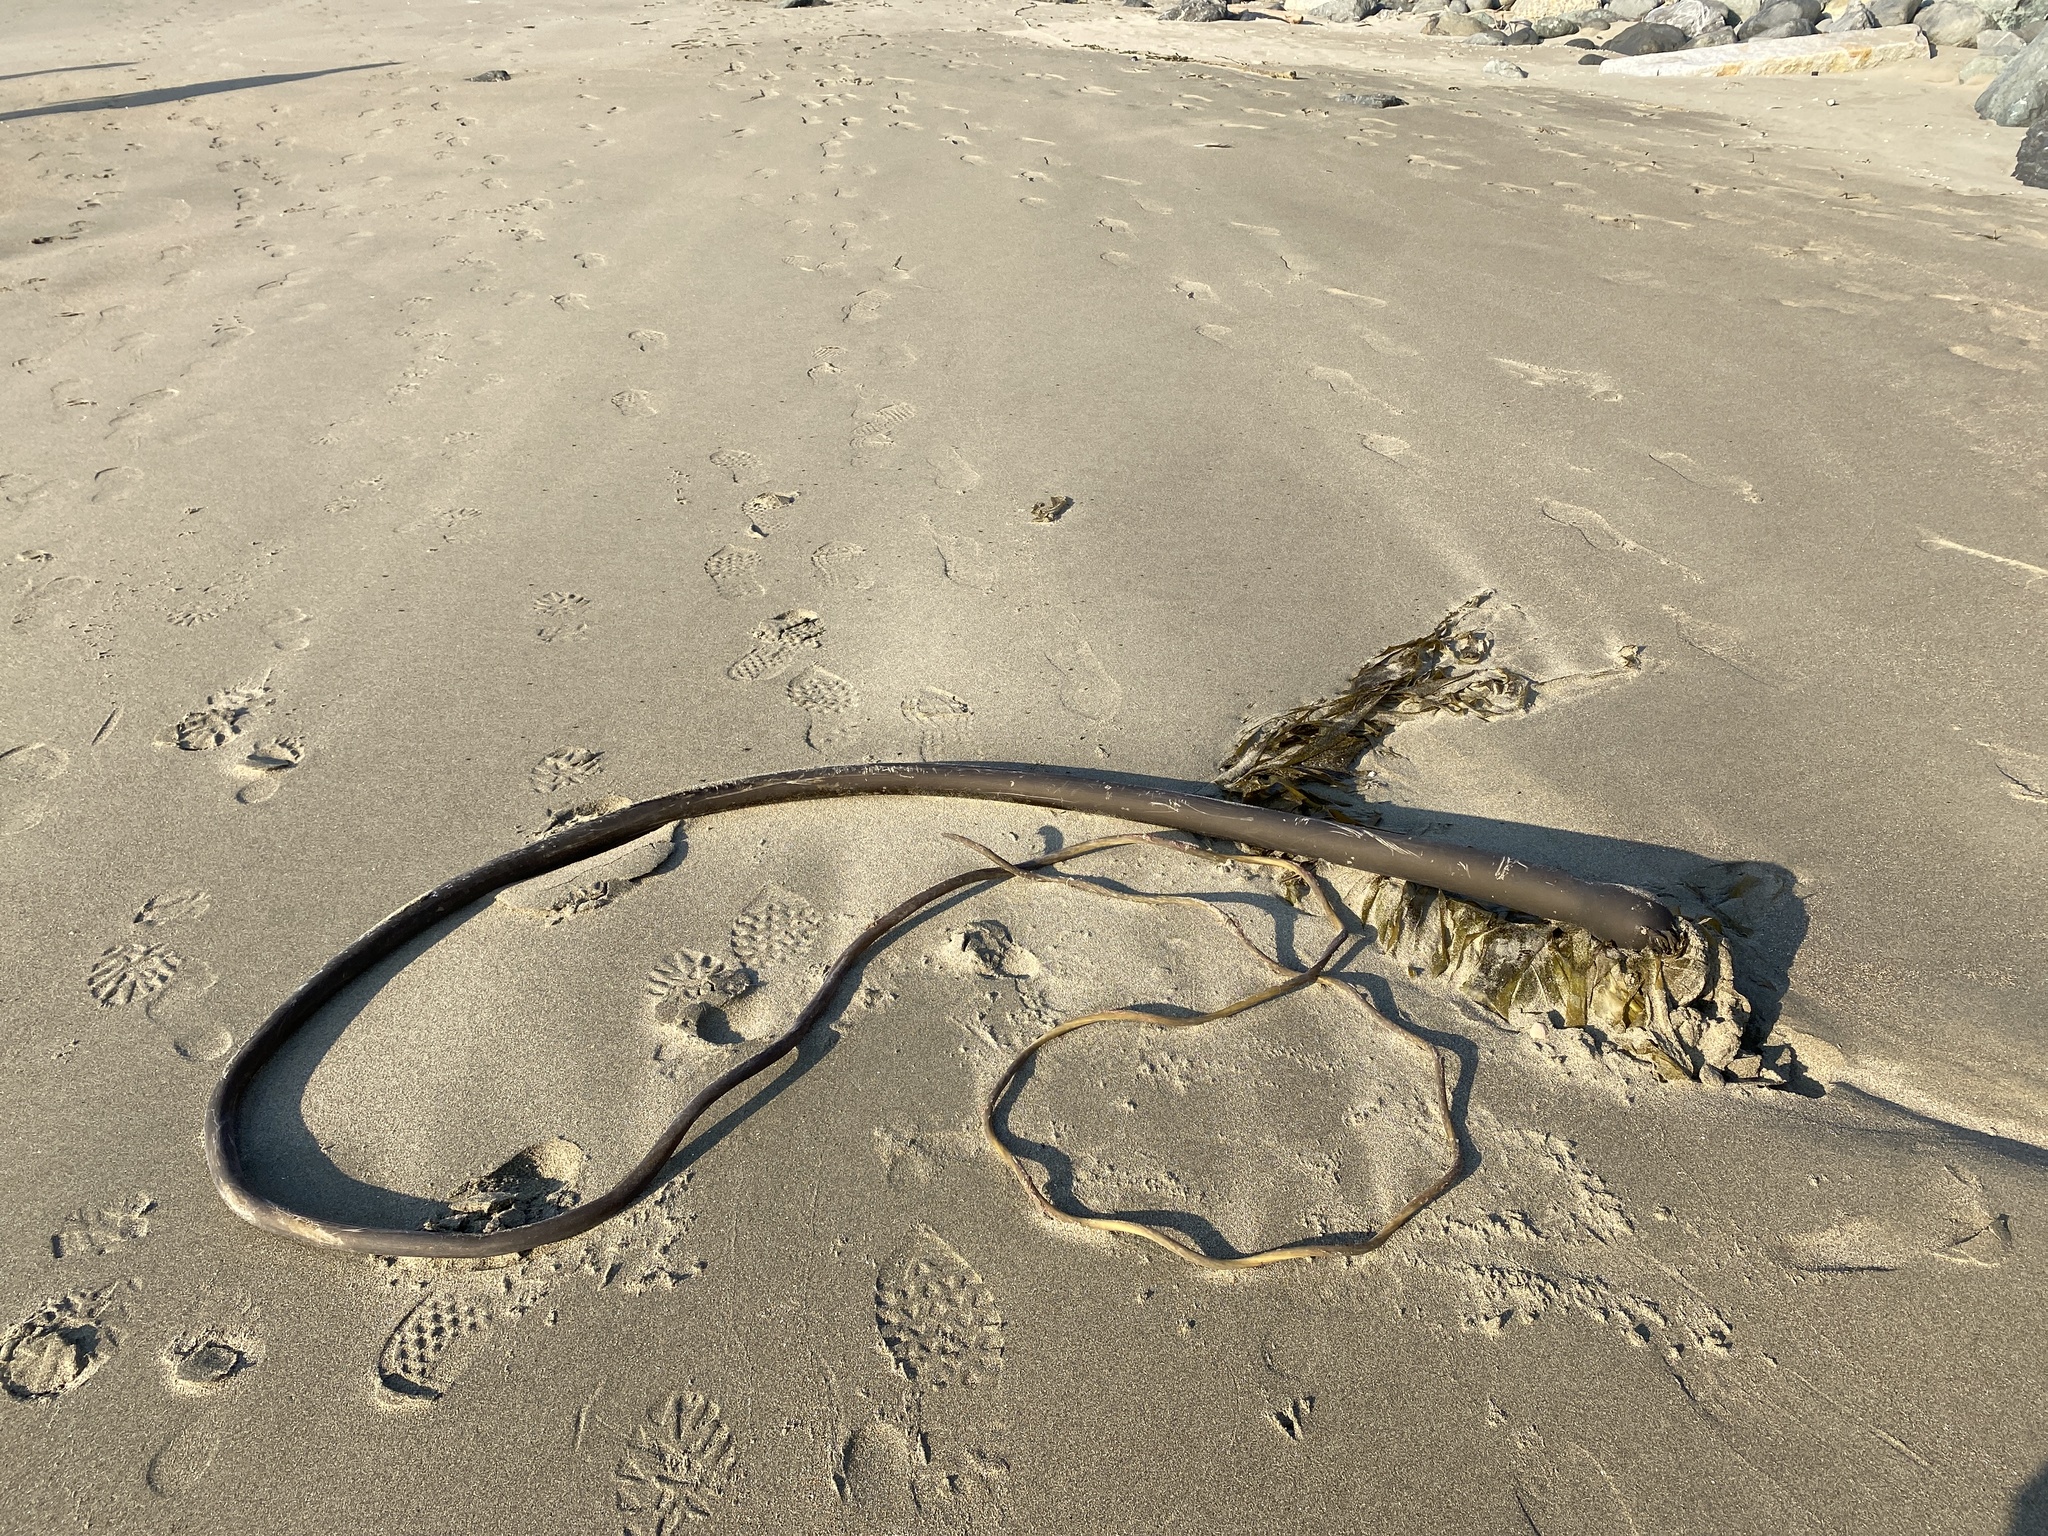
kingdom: Chromista
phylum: Ochrophyta
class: Phaeophyceae
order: Laminariales
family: Laminariaceae
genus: Nereocystis
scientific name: Nereocystis luetkeana
